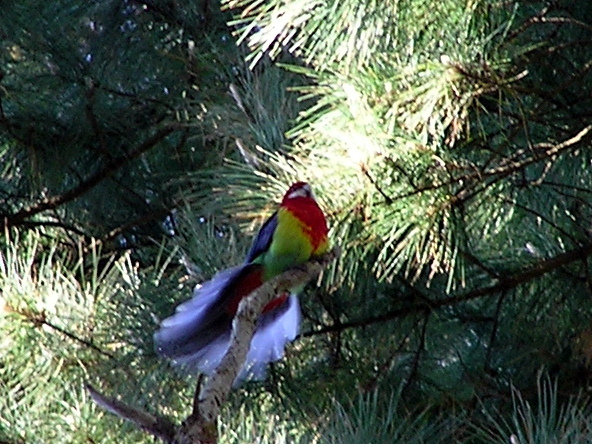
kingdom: Animalia
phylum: Chordata
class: Aves
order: Psittaciformes
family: Psittacidae
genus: Platycercus
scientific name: Platycercus eximius
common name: Eastern rosella
